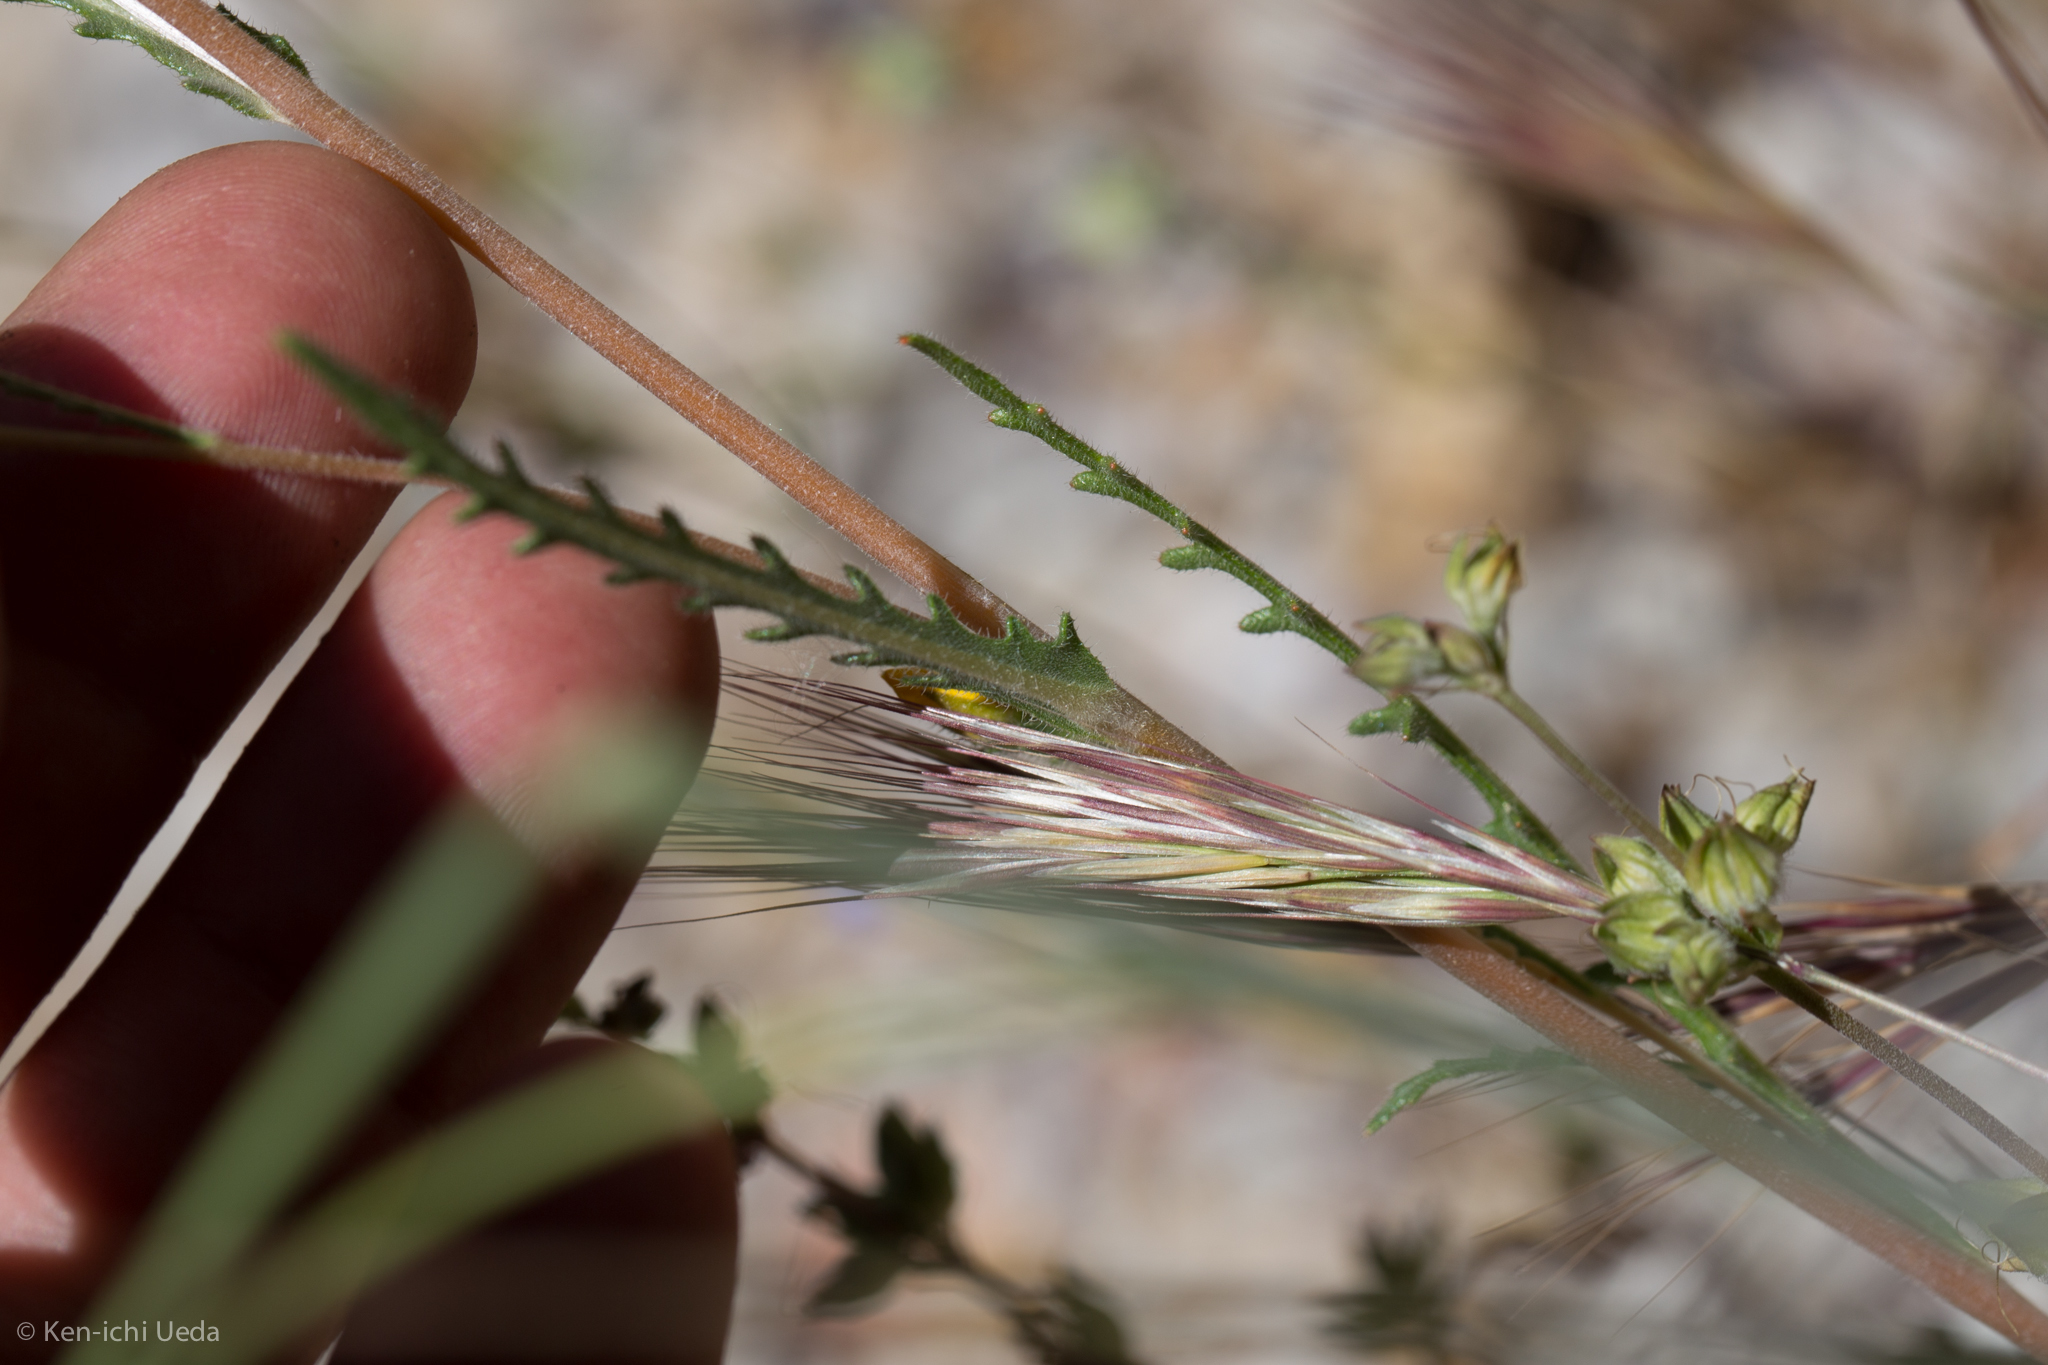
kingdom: Plantae
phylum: Tracheophyta
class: Magnoliopsida
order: Cornales
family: Loasaceae
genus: Mentzelia
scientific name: Mentzelia gracilenta
